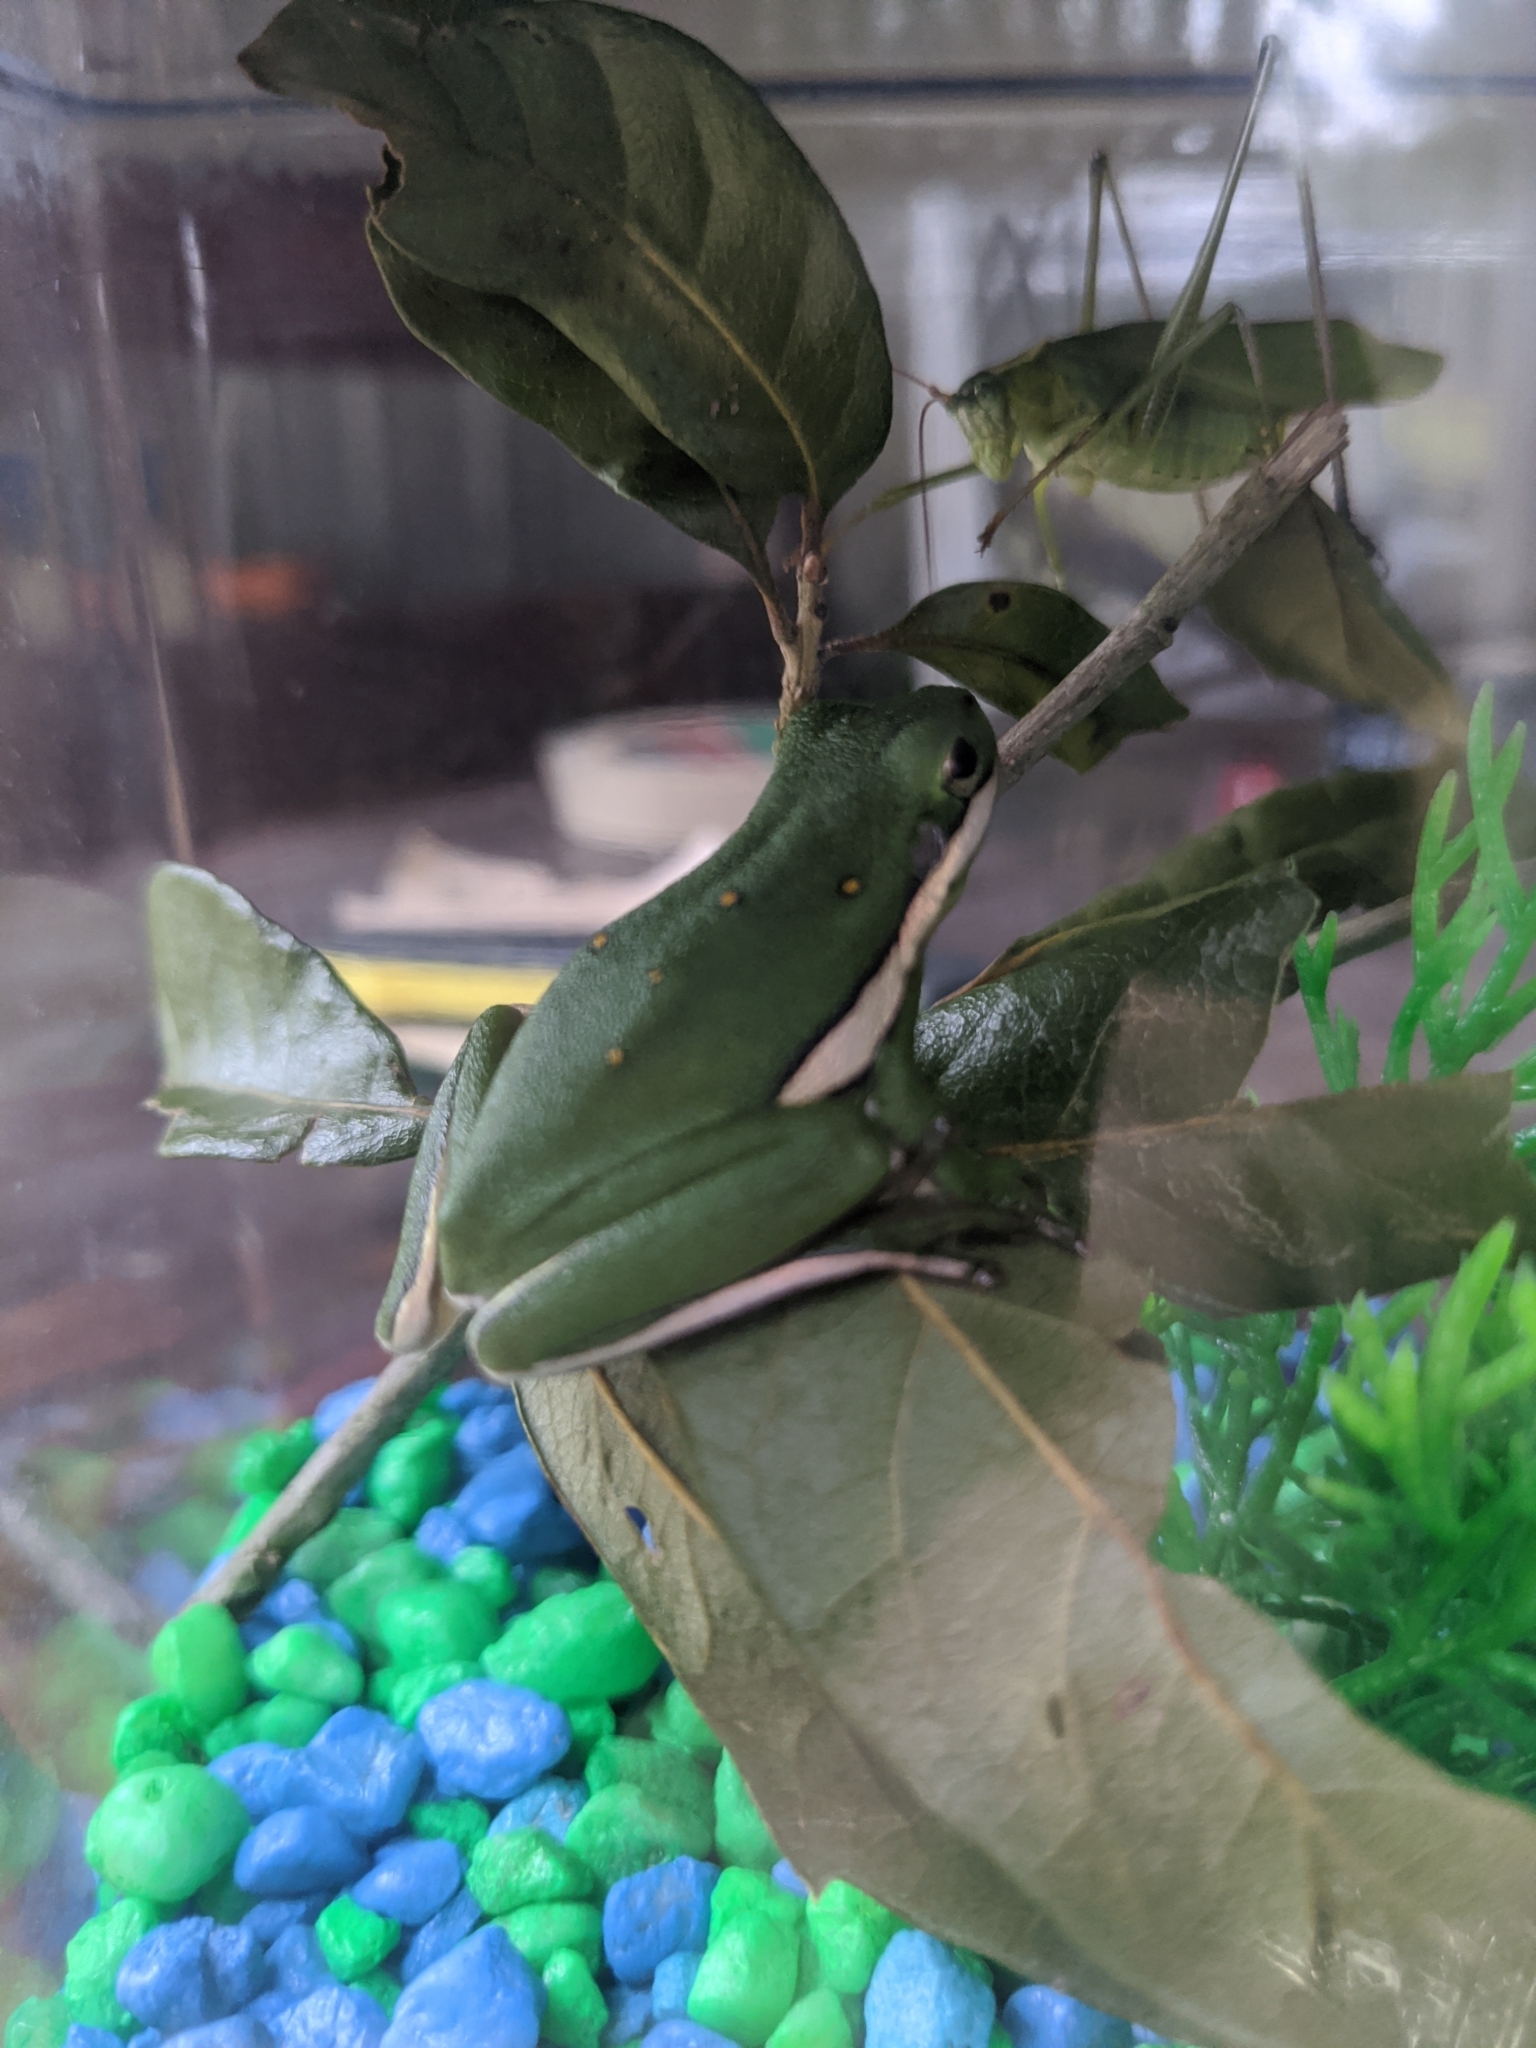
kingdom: Animalia
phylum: Chordata
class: Amphibia
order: Anura
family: Hylidae
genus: Dryophytes
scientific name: Dryophytes cinereus
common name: Green treefrog
